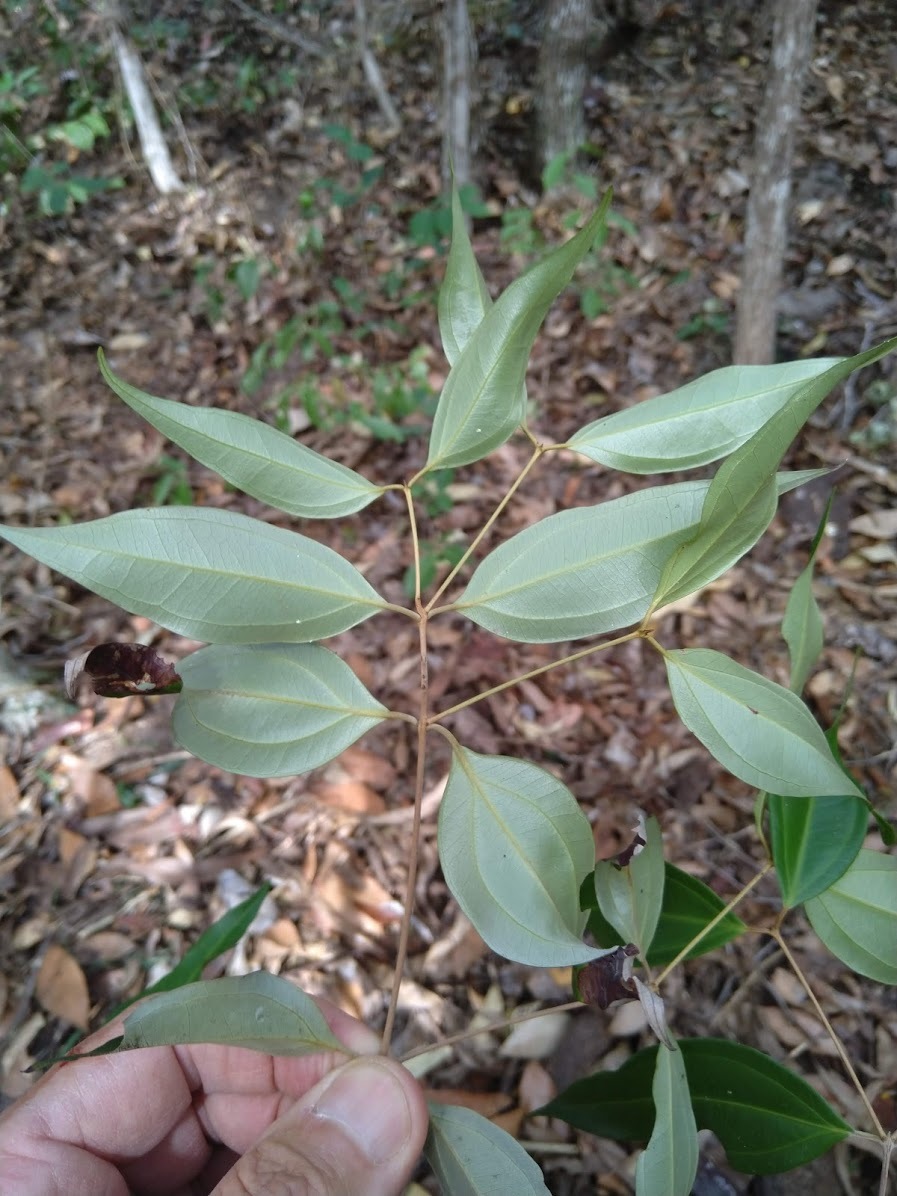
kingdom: Plantae
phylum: Tracheophyta
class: Magnoliopsida
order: Myrtales
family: Myrtaceae
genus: Rhodamnia
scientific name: Rhodamnia acuminata
